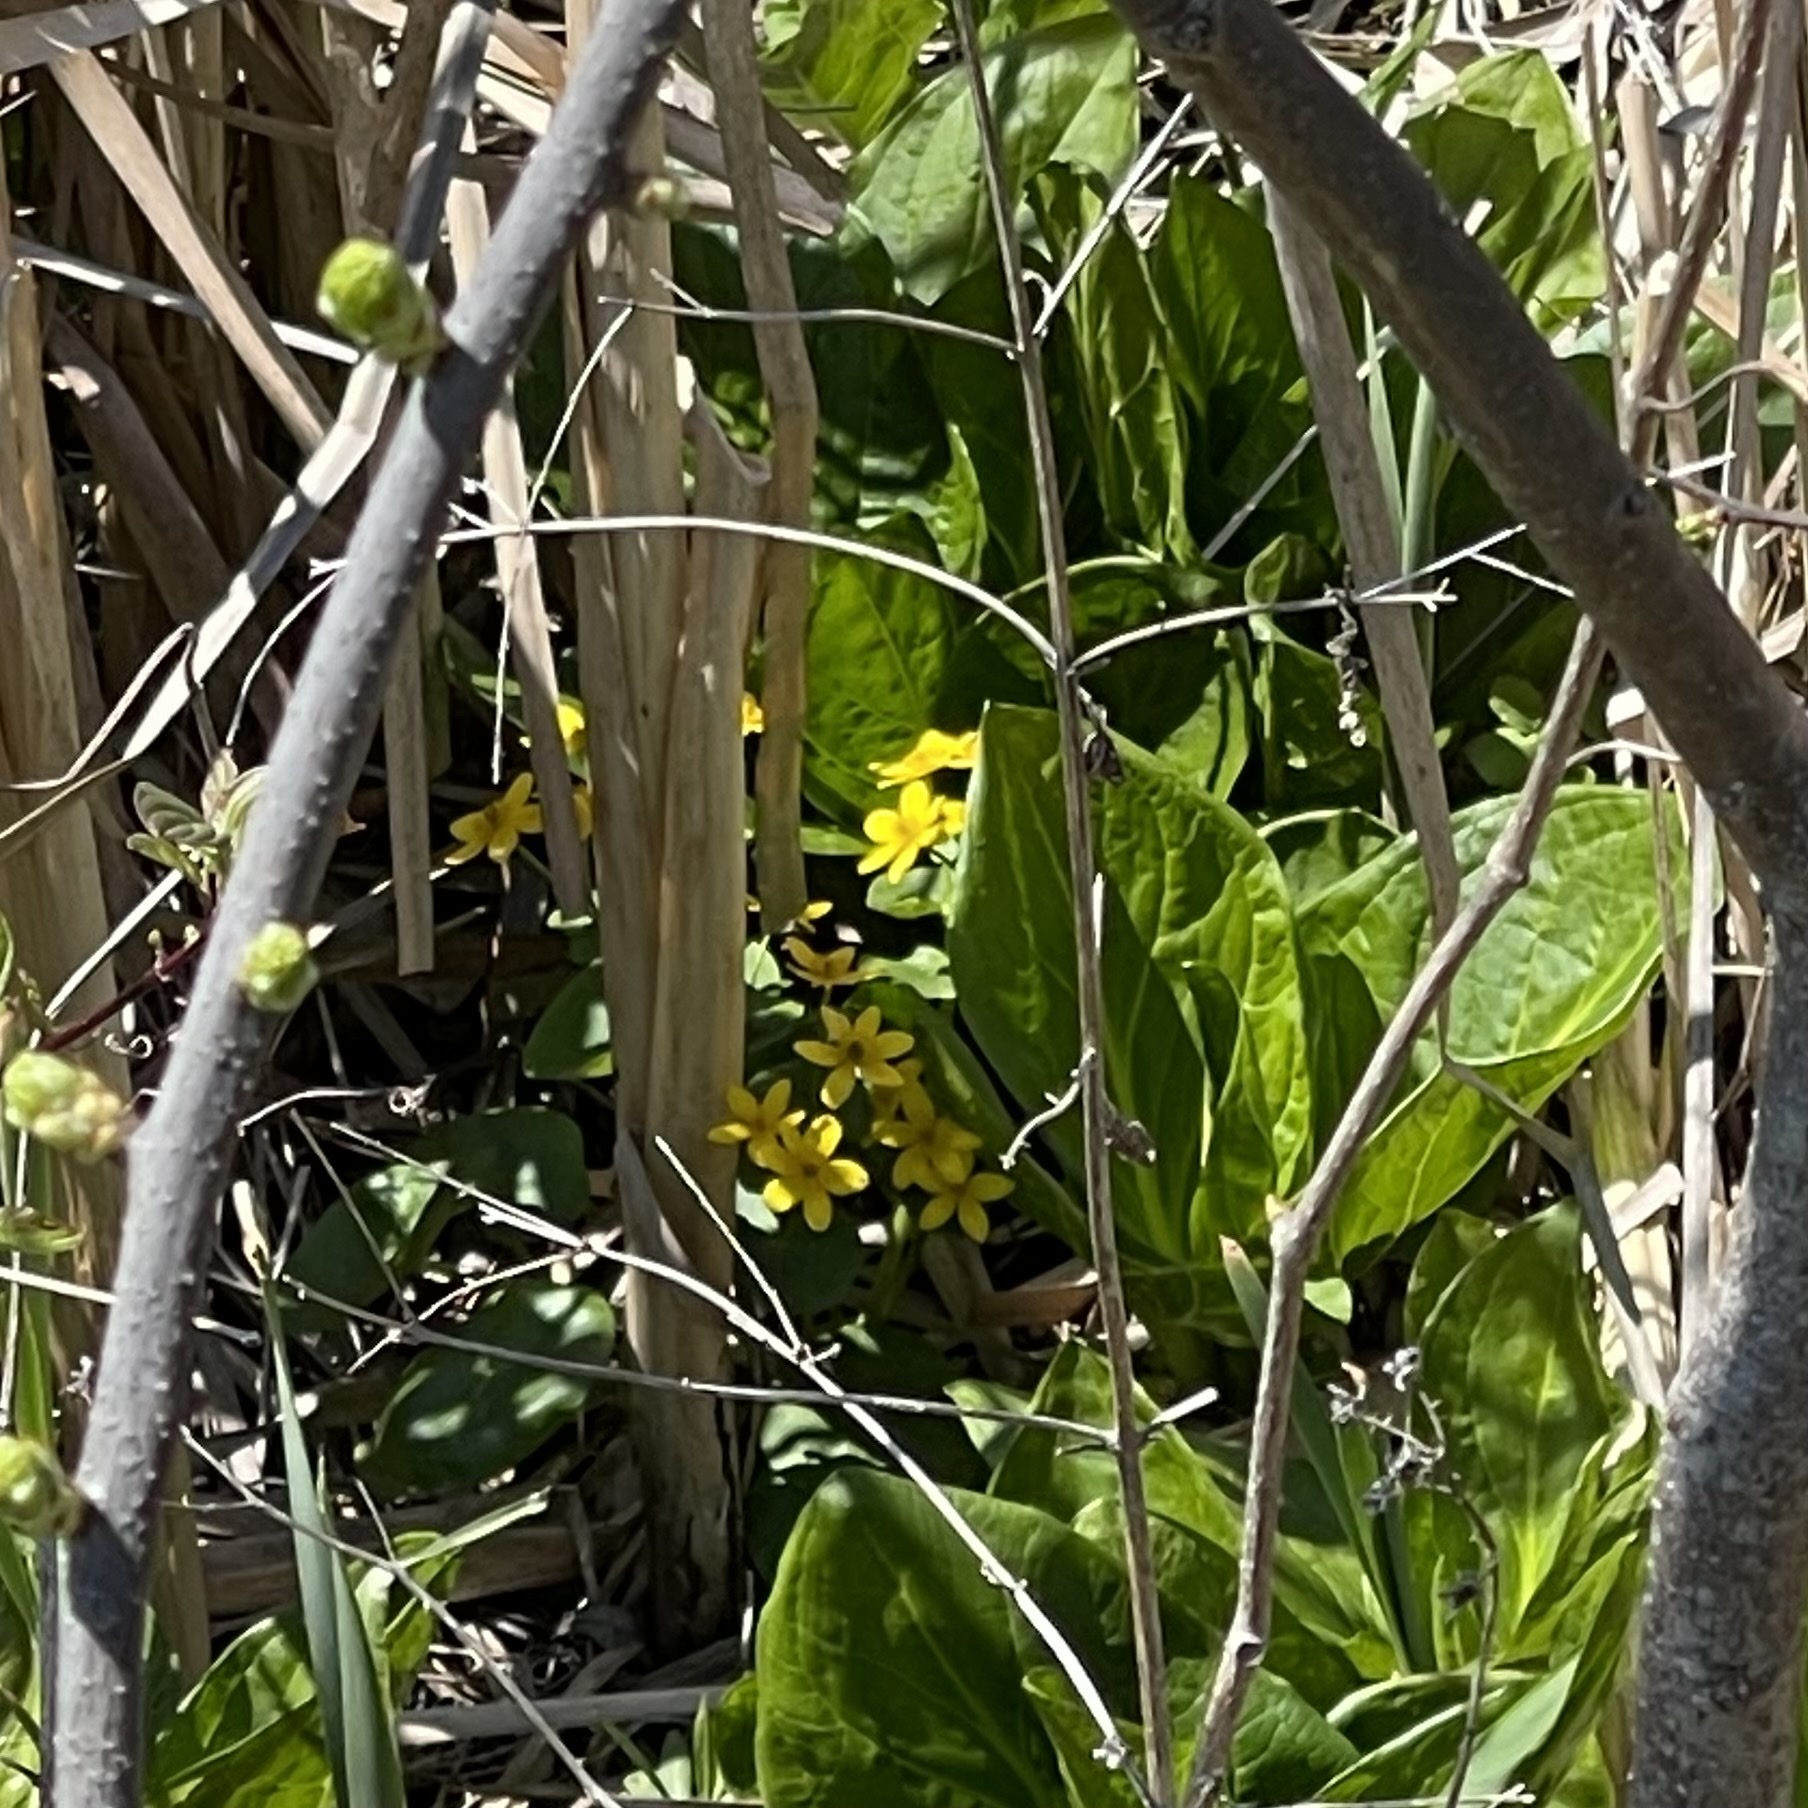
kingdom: Plantae
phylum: Tracheophyta
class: Magnoliopsida
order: Ranunculales
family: Ranunculaceae
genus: Caltha
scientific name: Caltha palustris
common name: Marsh marigold
